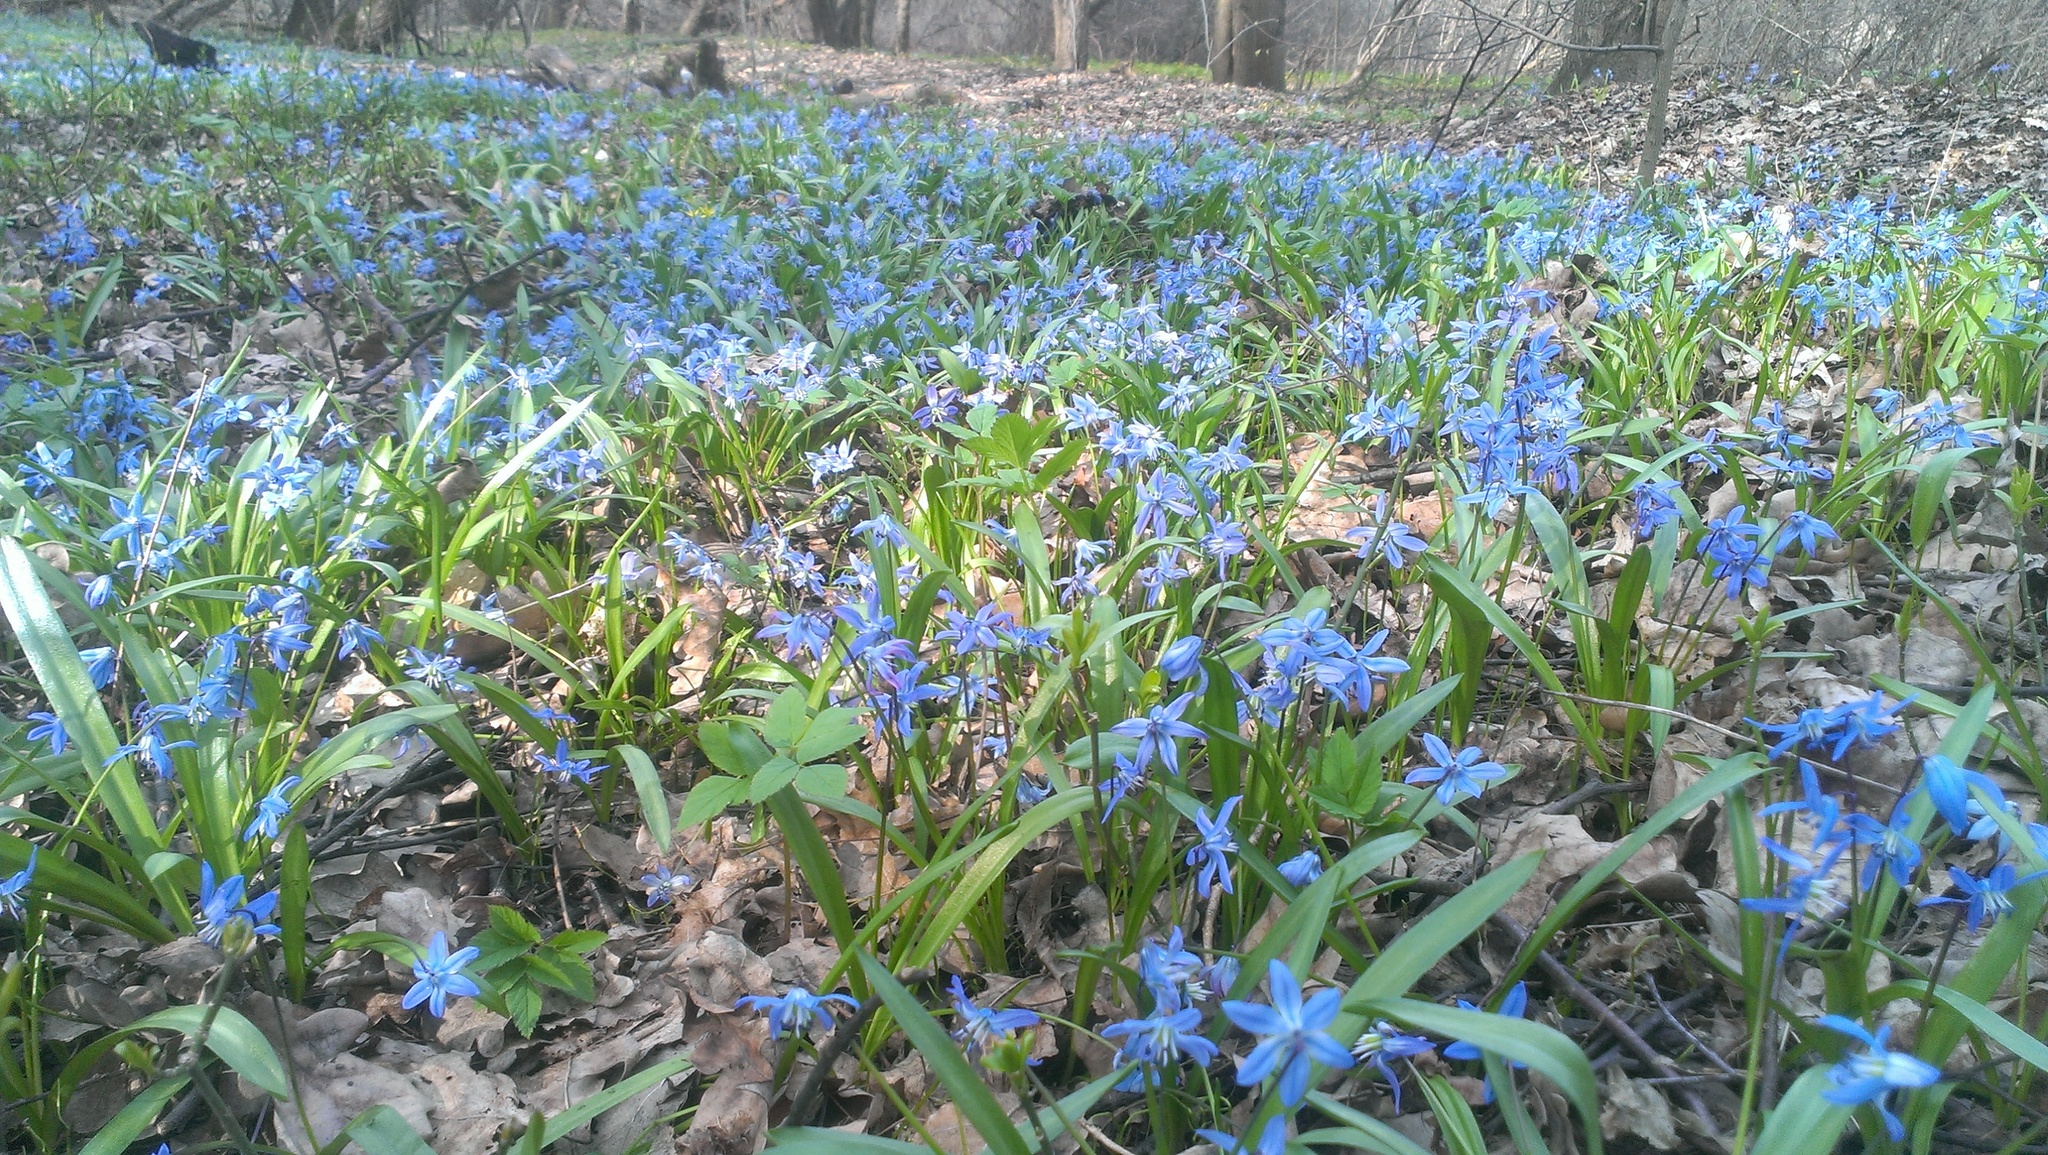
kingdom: Plantae
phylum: Tracheophyta
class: Liliopsida
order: Asparagales
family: Asparagaceae
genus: Scilla
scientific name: Scilla siberica
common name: Siberian squill
